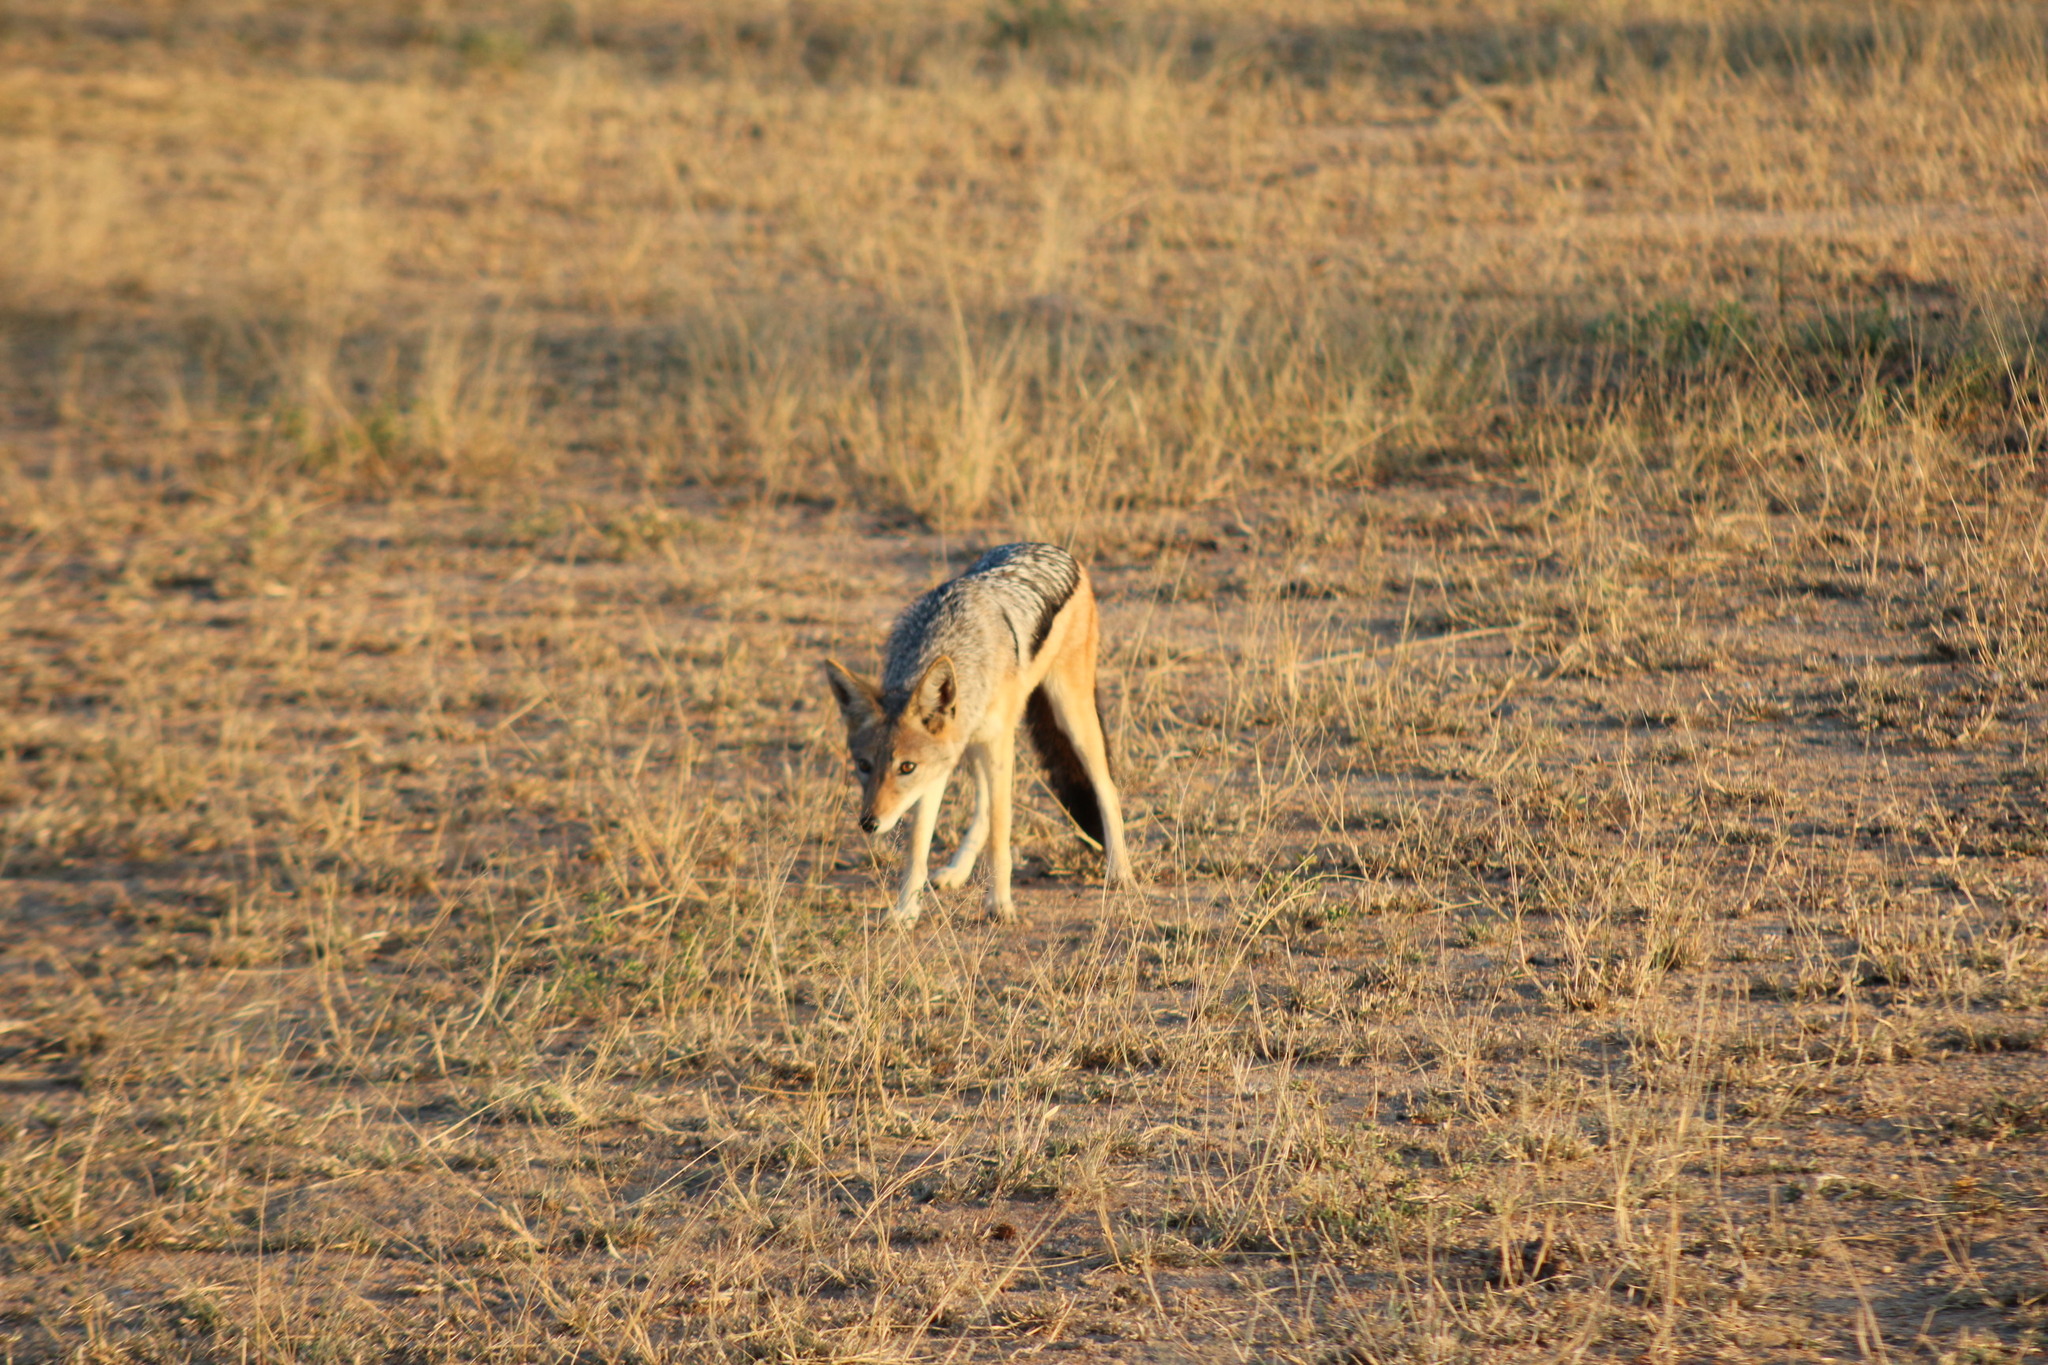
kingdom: Animalia
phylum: Chordata
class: Mammalia
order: Carnivora
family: Canidae
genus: Lupulella
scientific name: Lupulella
